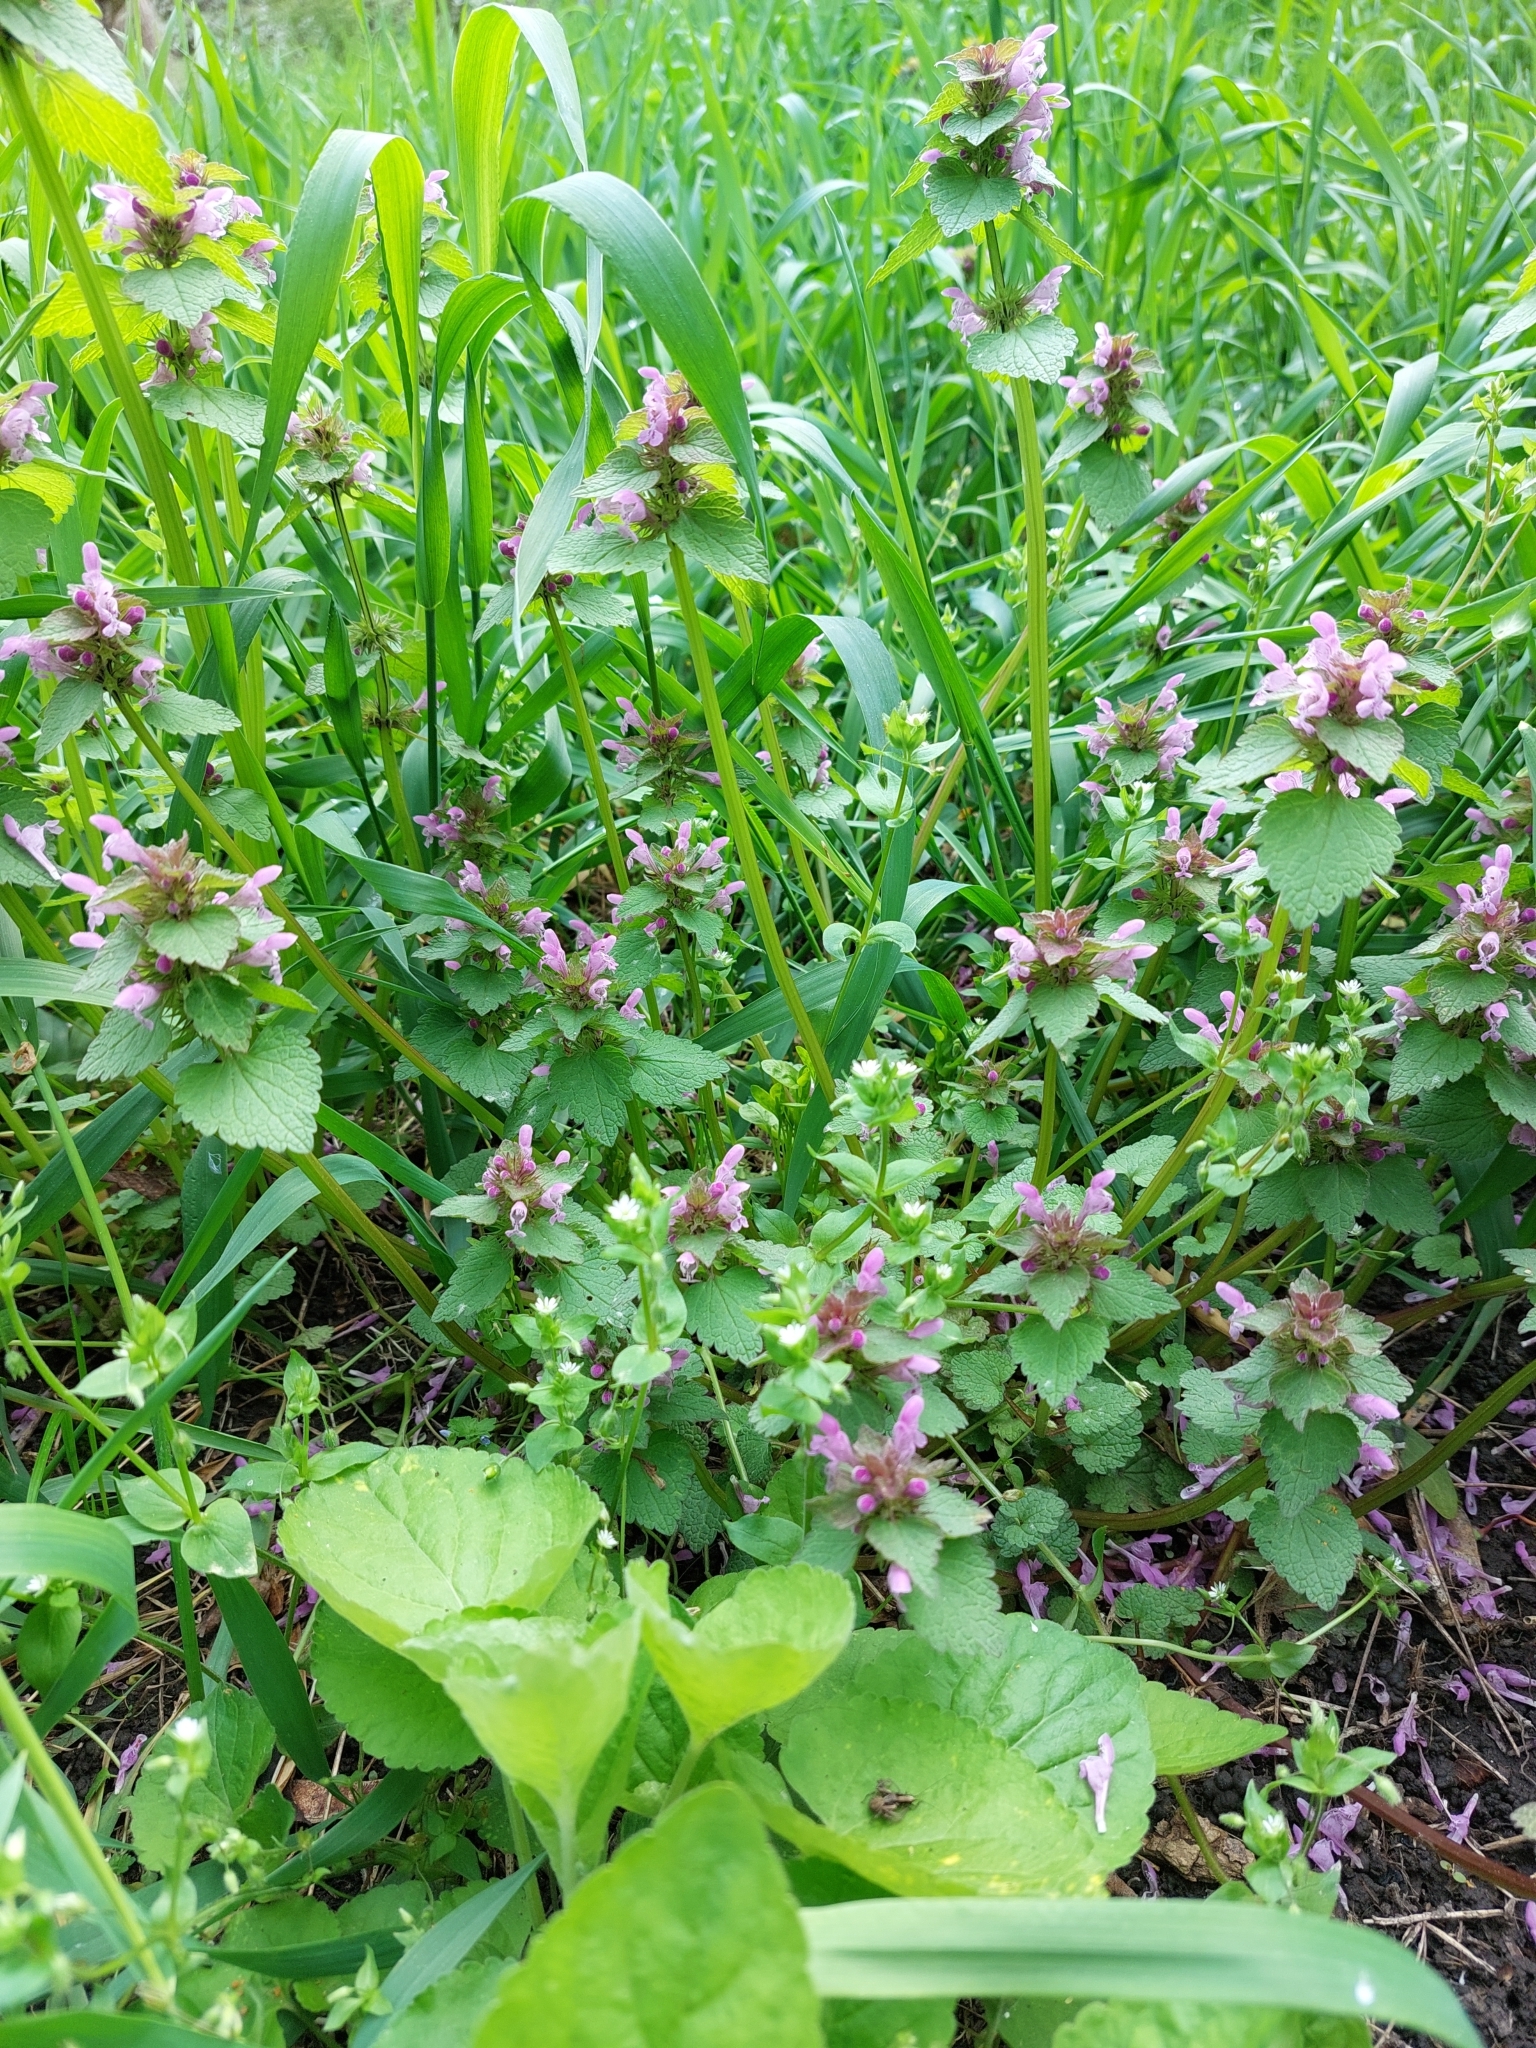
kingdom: Plantae
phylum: Tracheophyta
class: Magnoliopsida
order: Lamiales
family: Lamiaceae
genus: Lamium
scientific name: Lamium purpureum
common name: Red dead-nettle
